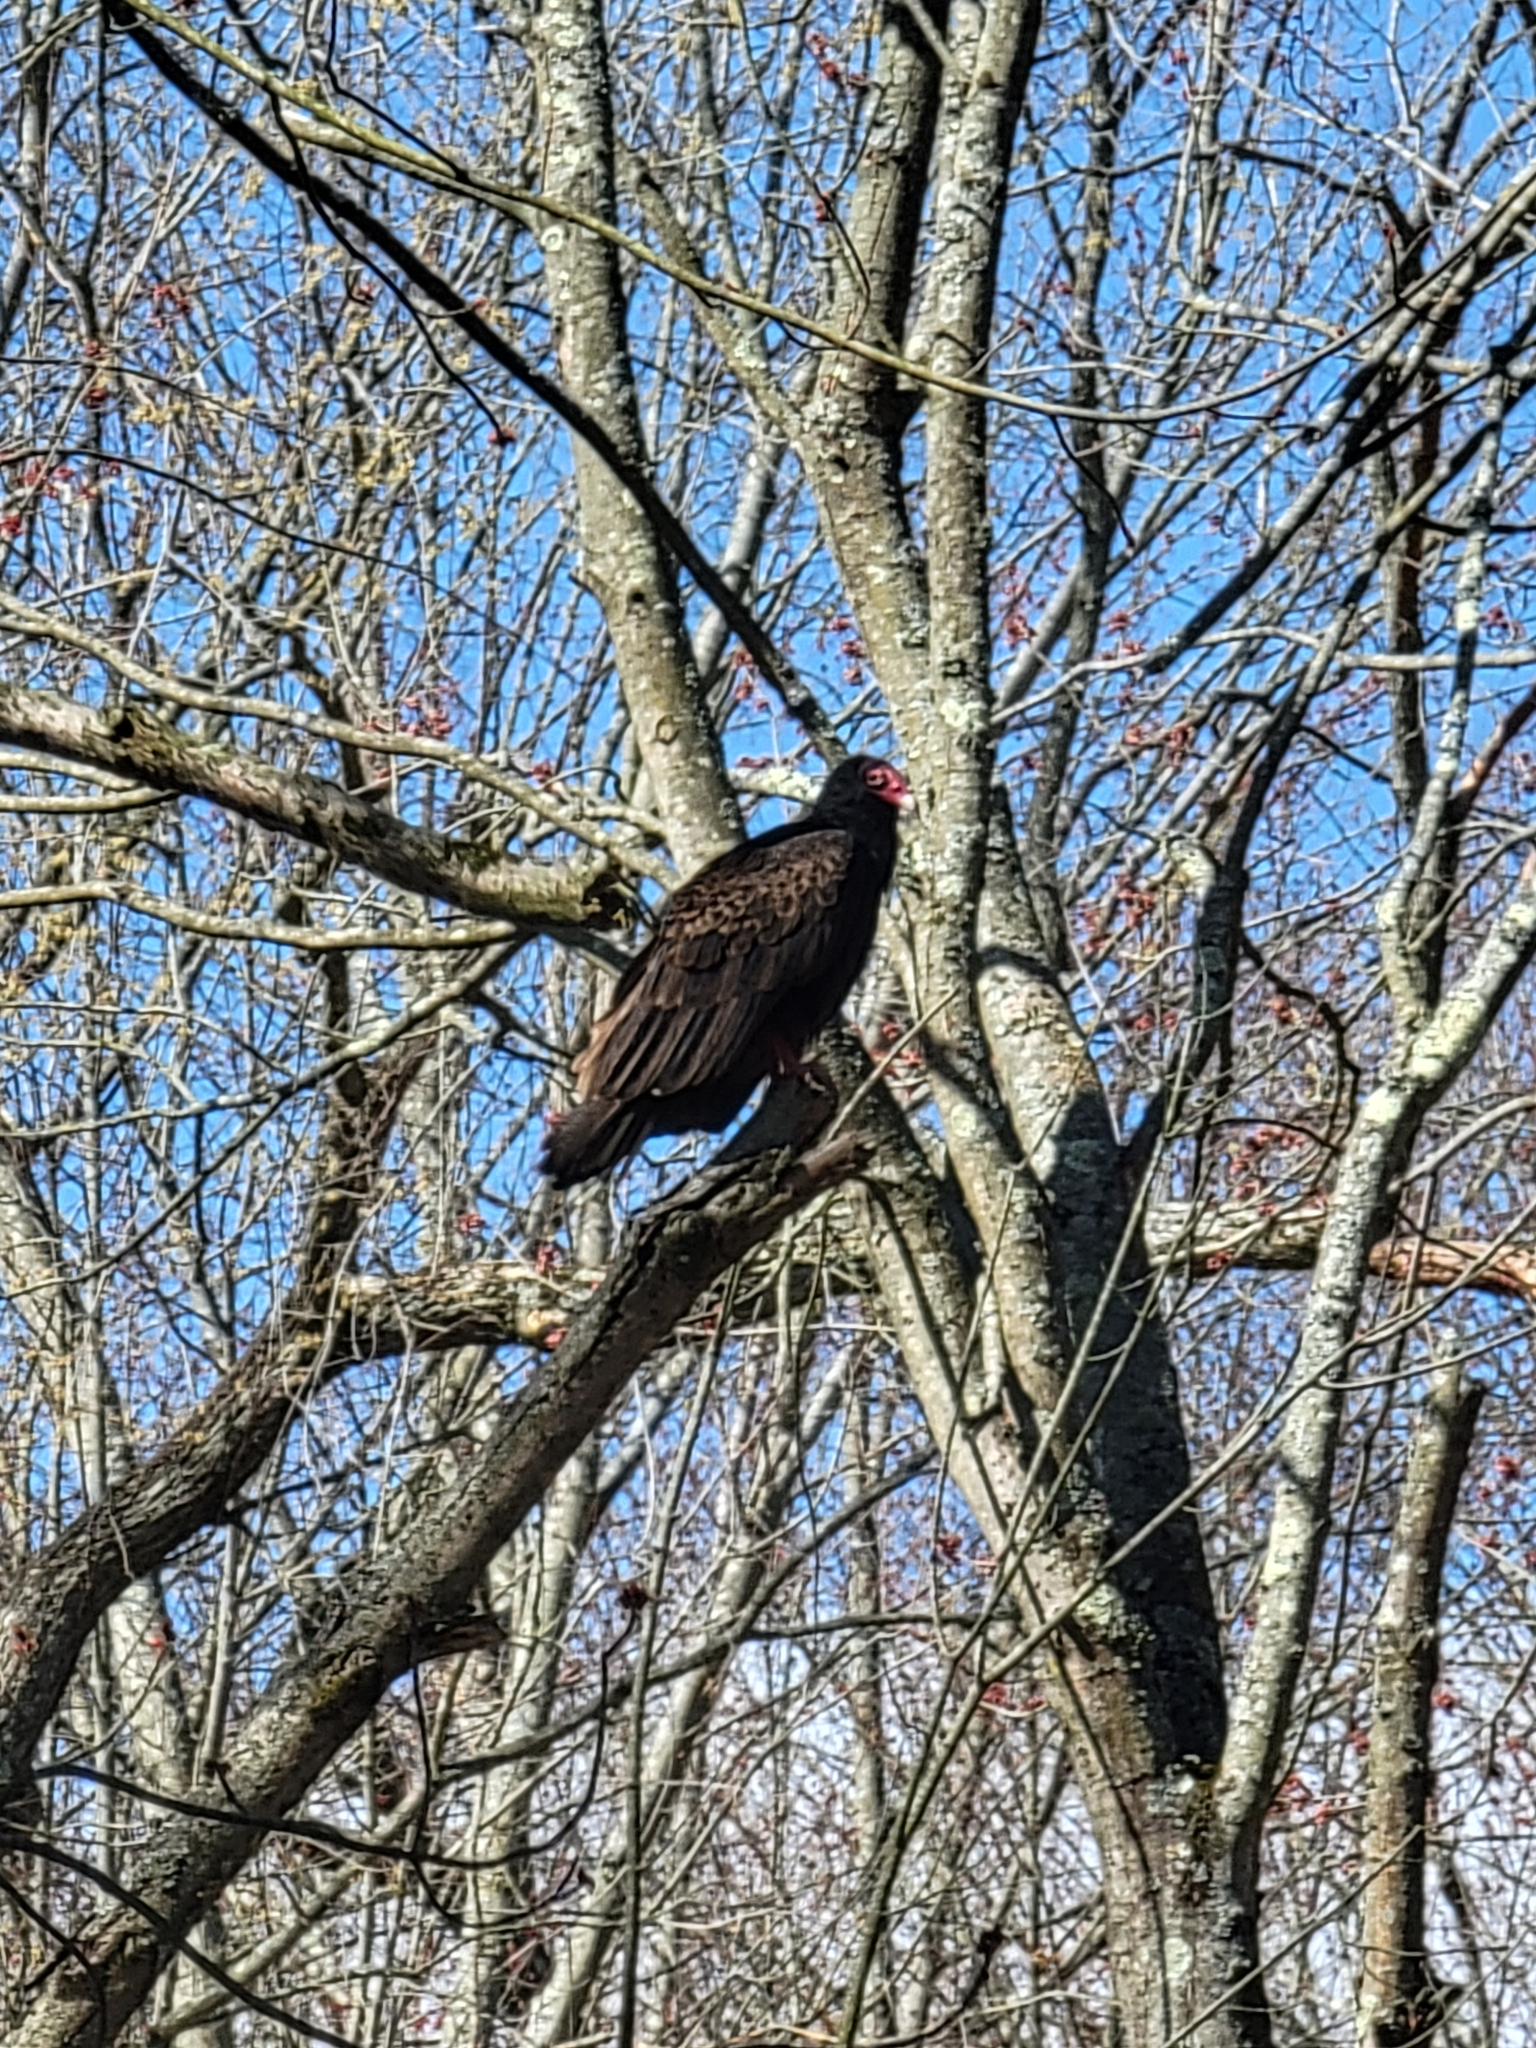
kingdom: Animalia
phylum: Chordata
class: Aves
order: Accipitriformes
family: Cathartidae
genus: Cathartes
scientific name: Cathartes aura
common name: Turkey vulture
